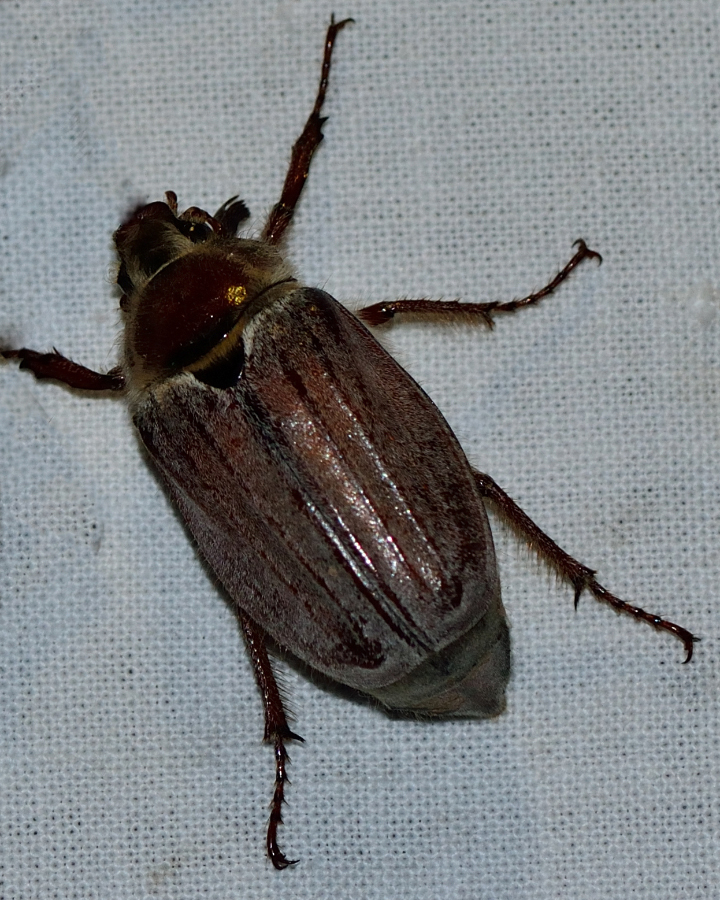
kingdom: Animalia
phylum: Arthropoda
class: Insecta
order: Coleoptera
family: Scarabaeidae
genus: Melolontha
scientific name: Melolontha hippocastani
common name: Chestnut cockchafer
